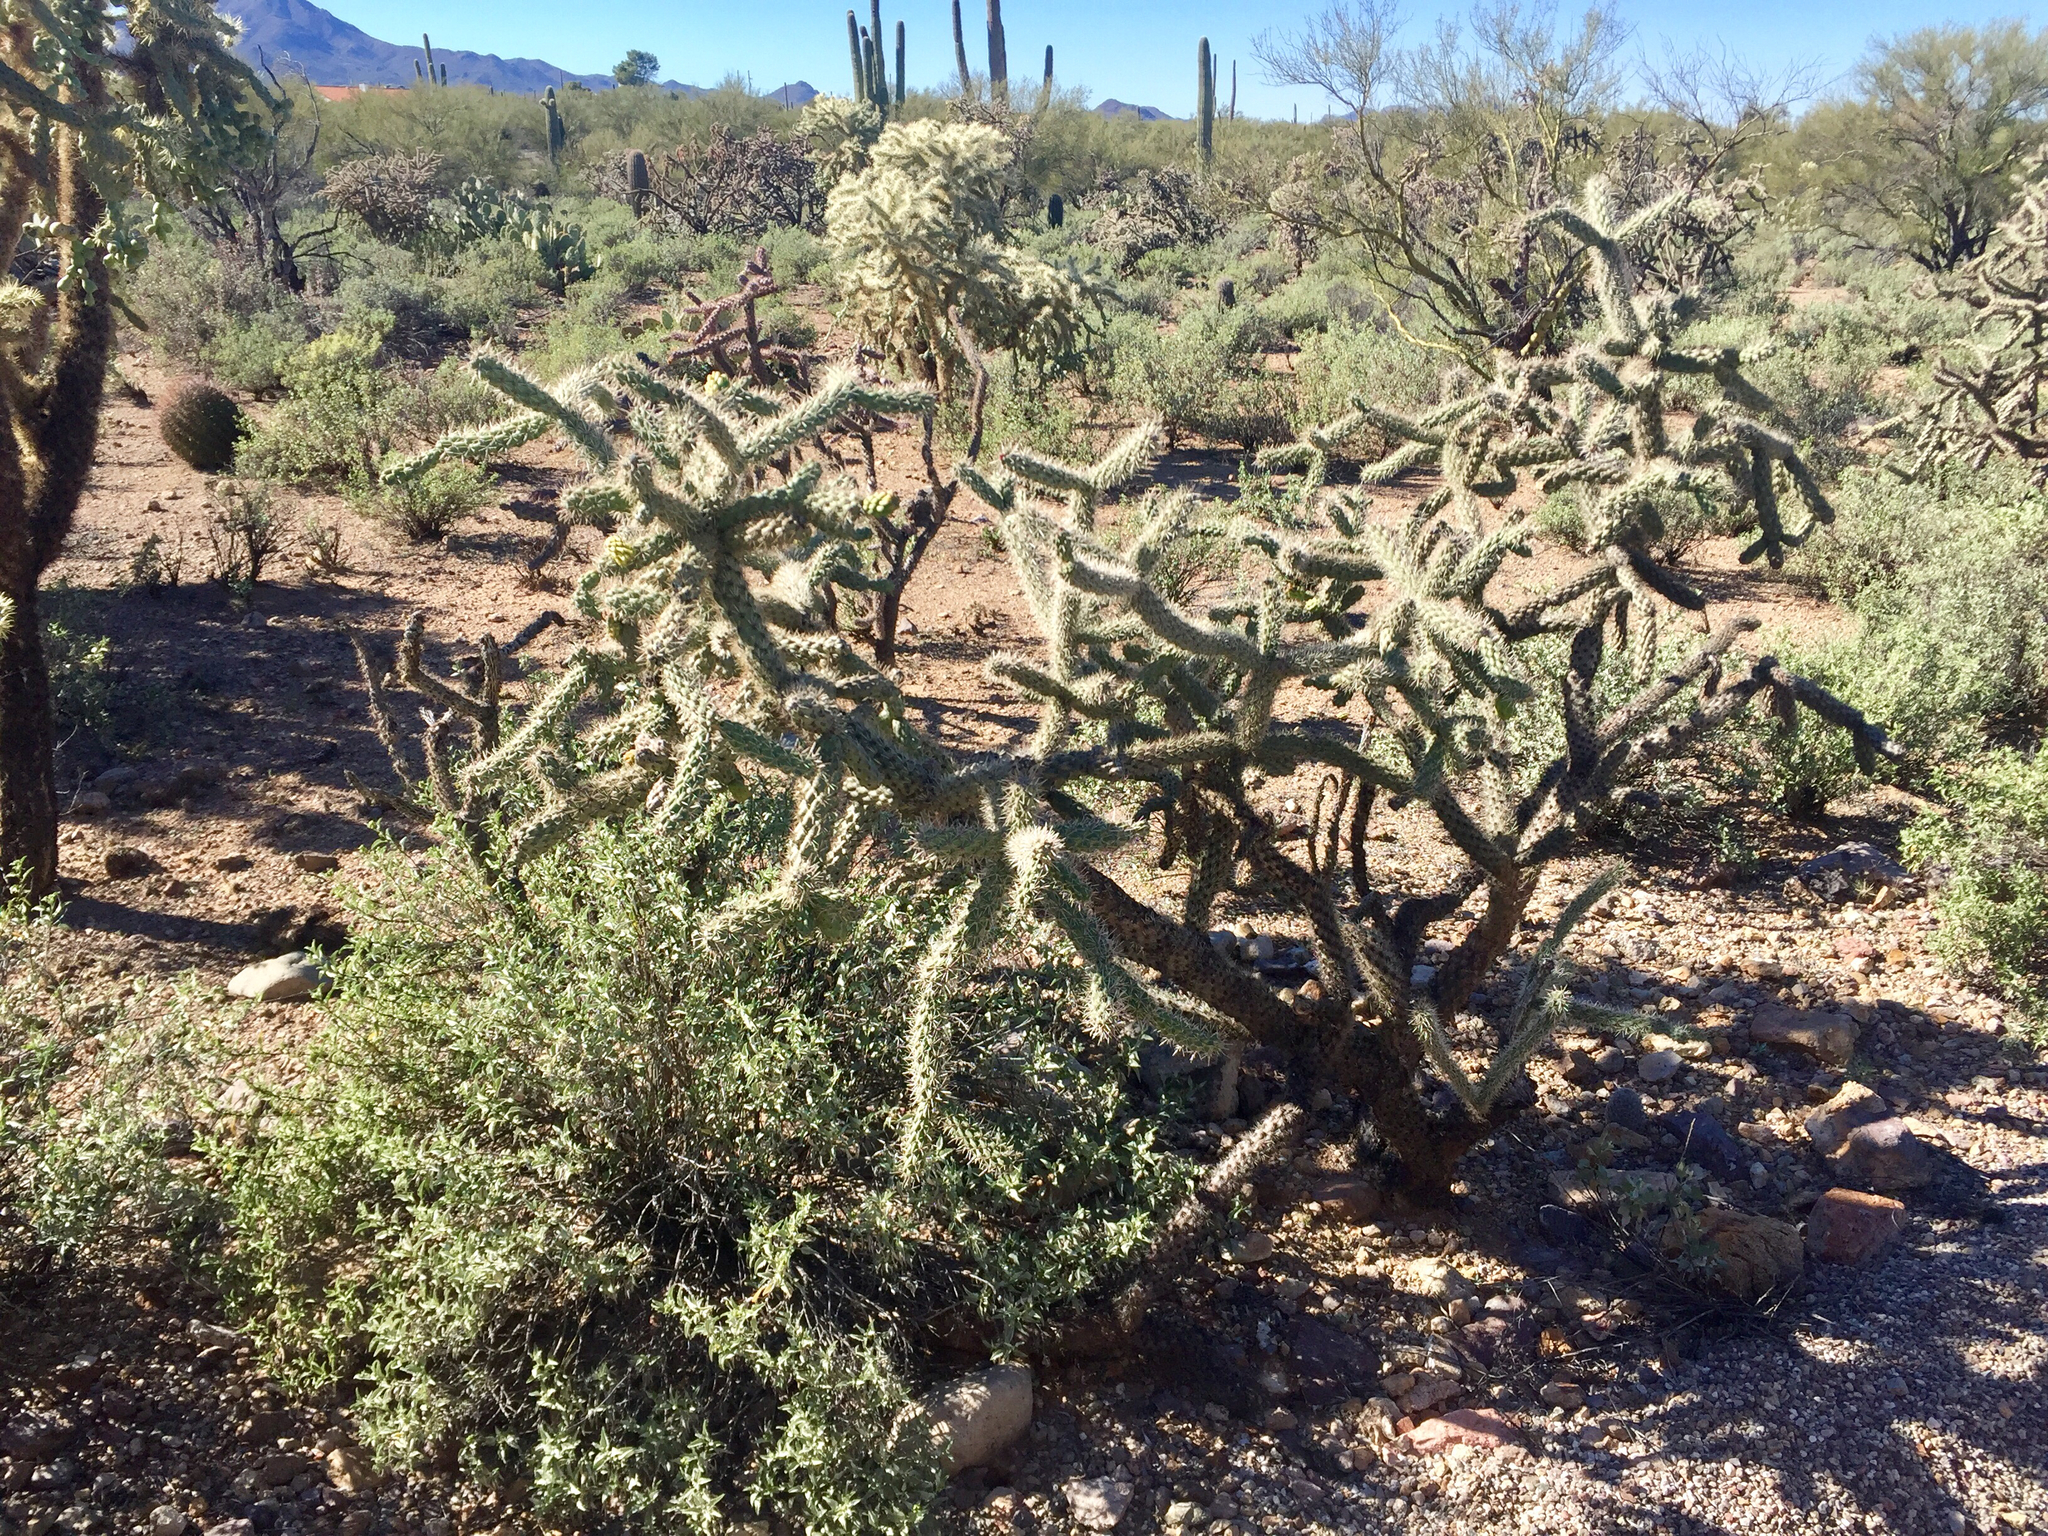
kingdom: Plantae
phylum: Tracheophyta
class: Magnoliopsida
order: Caryophyllales
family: Cactaceae
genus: Cylindropuntia
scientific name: Cylindropuntia imbricata
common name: Candelabrum cactus
